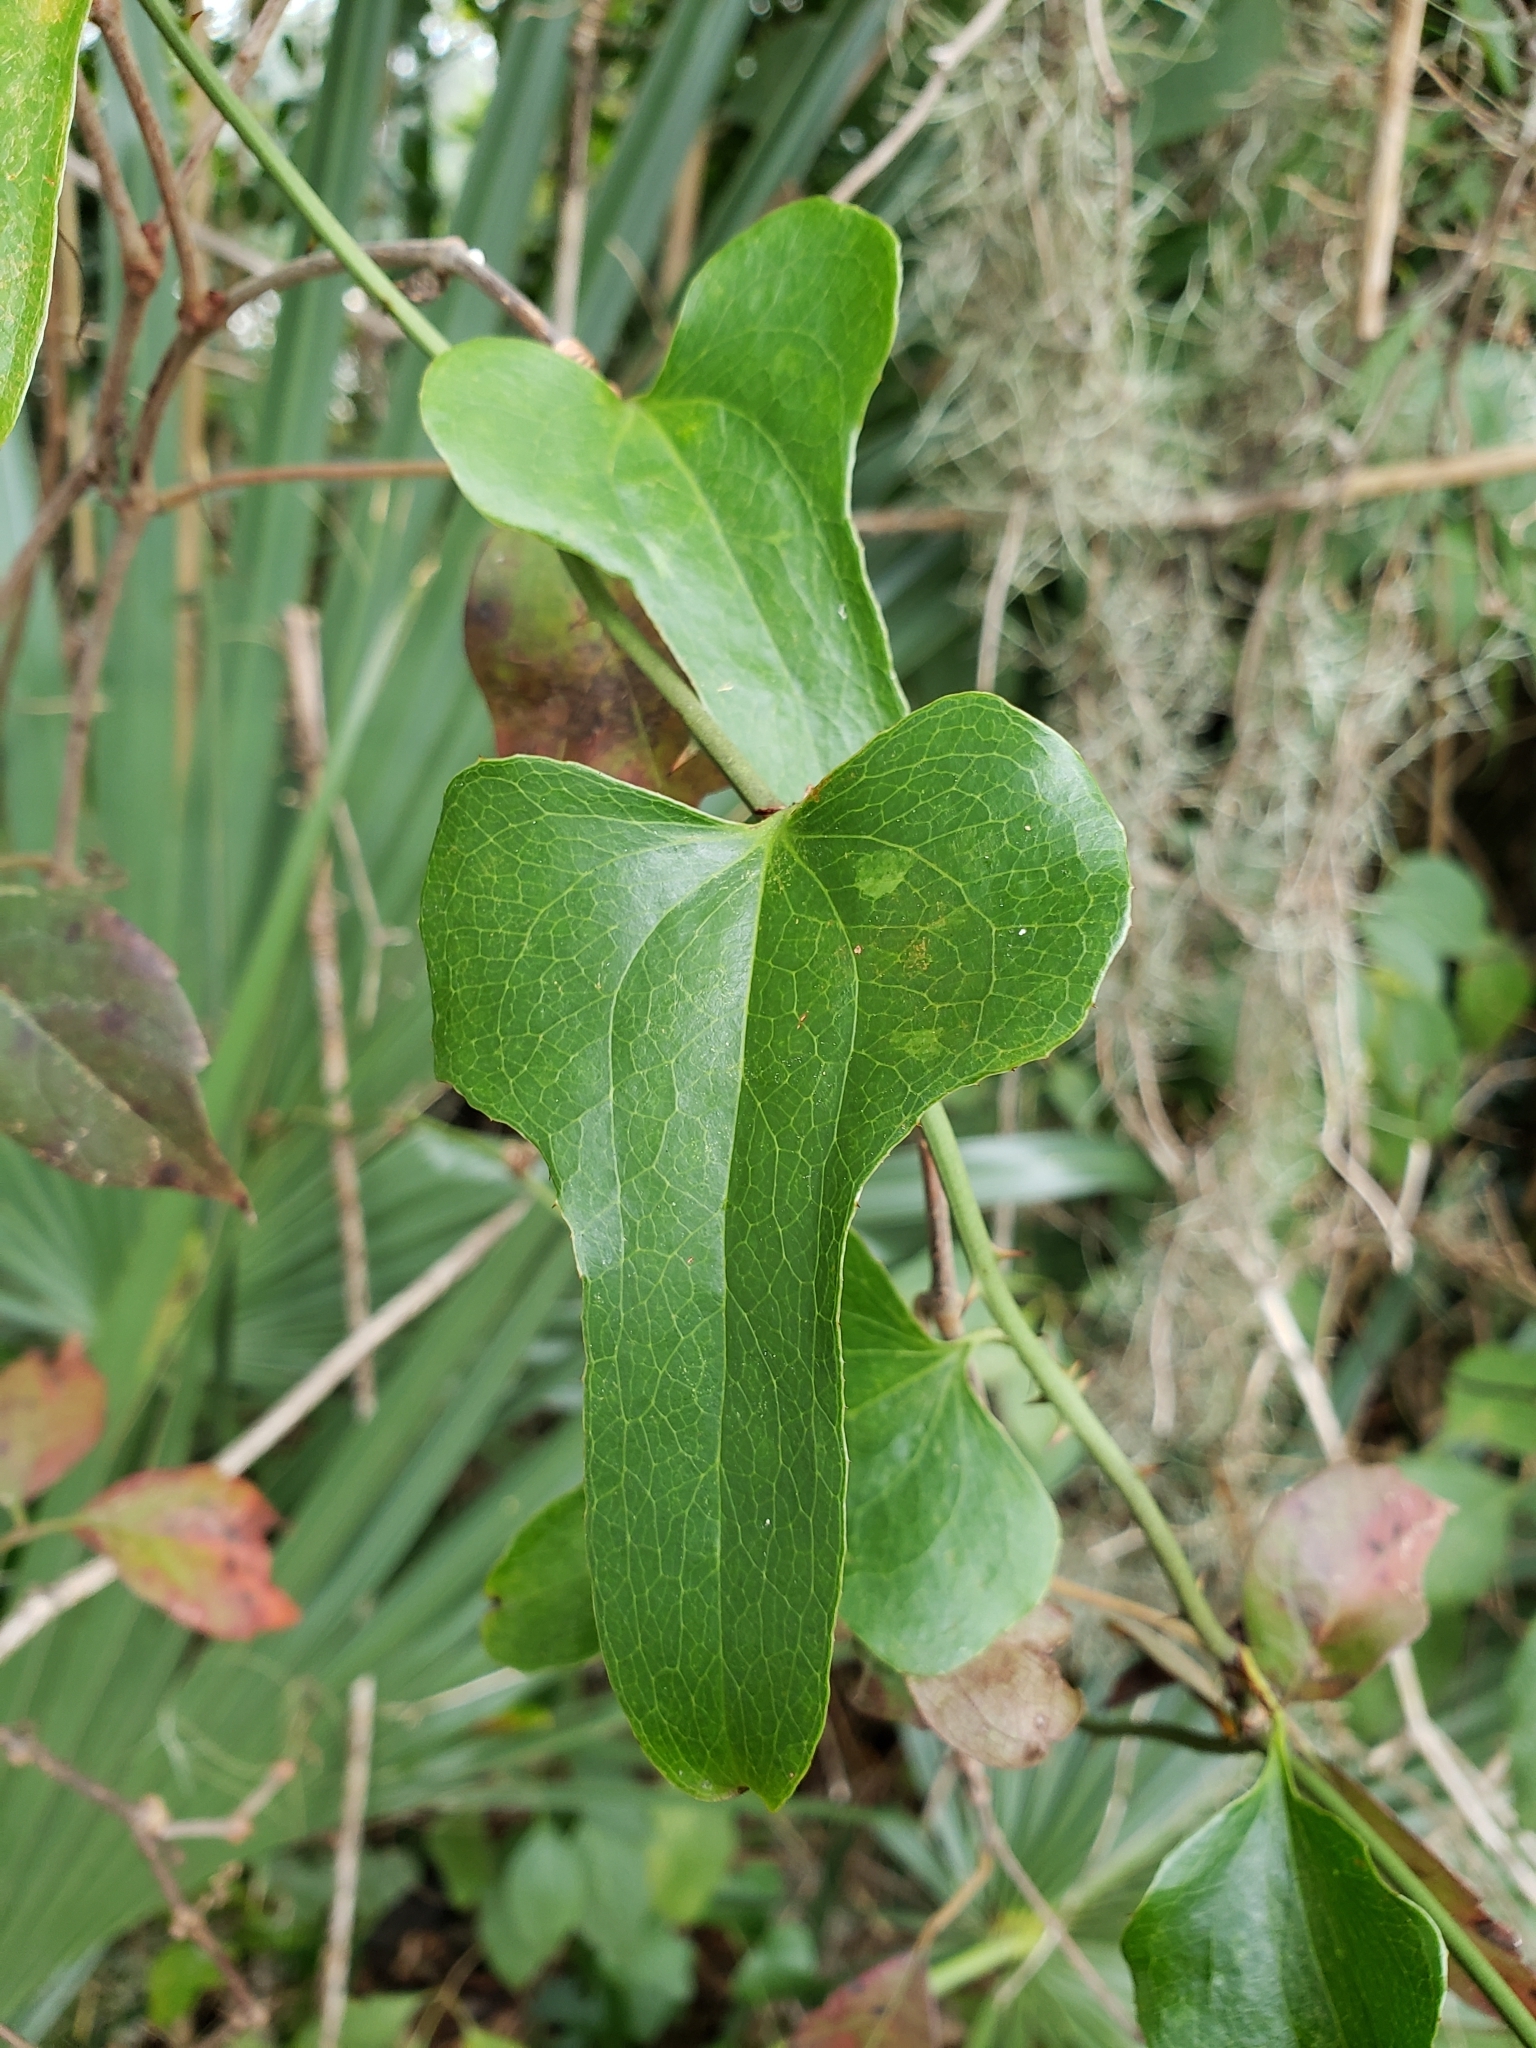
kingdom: Plantae
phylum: Tracheophyta
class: Liliopsida
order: Liliales
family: Smilacaceae
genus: Smilax
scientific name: Smilax bona-nox
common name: Catbrier
